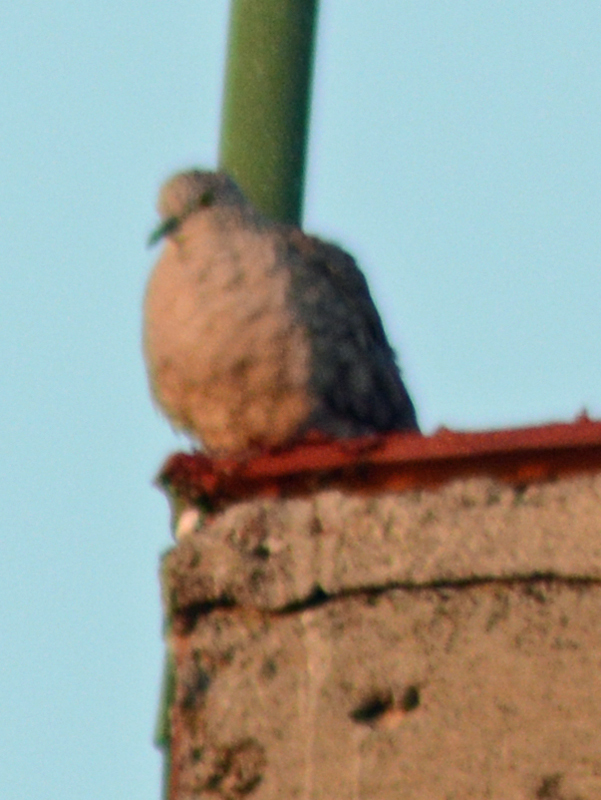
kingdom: Animalia
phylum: Chordata
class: Aves
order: Columbiformes
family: Columbidae
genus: Columbina
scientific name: Columbina inca
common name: Inca dove
